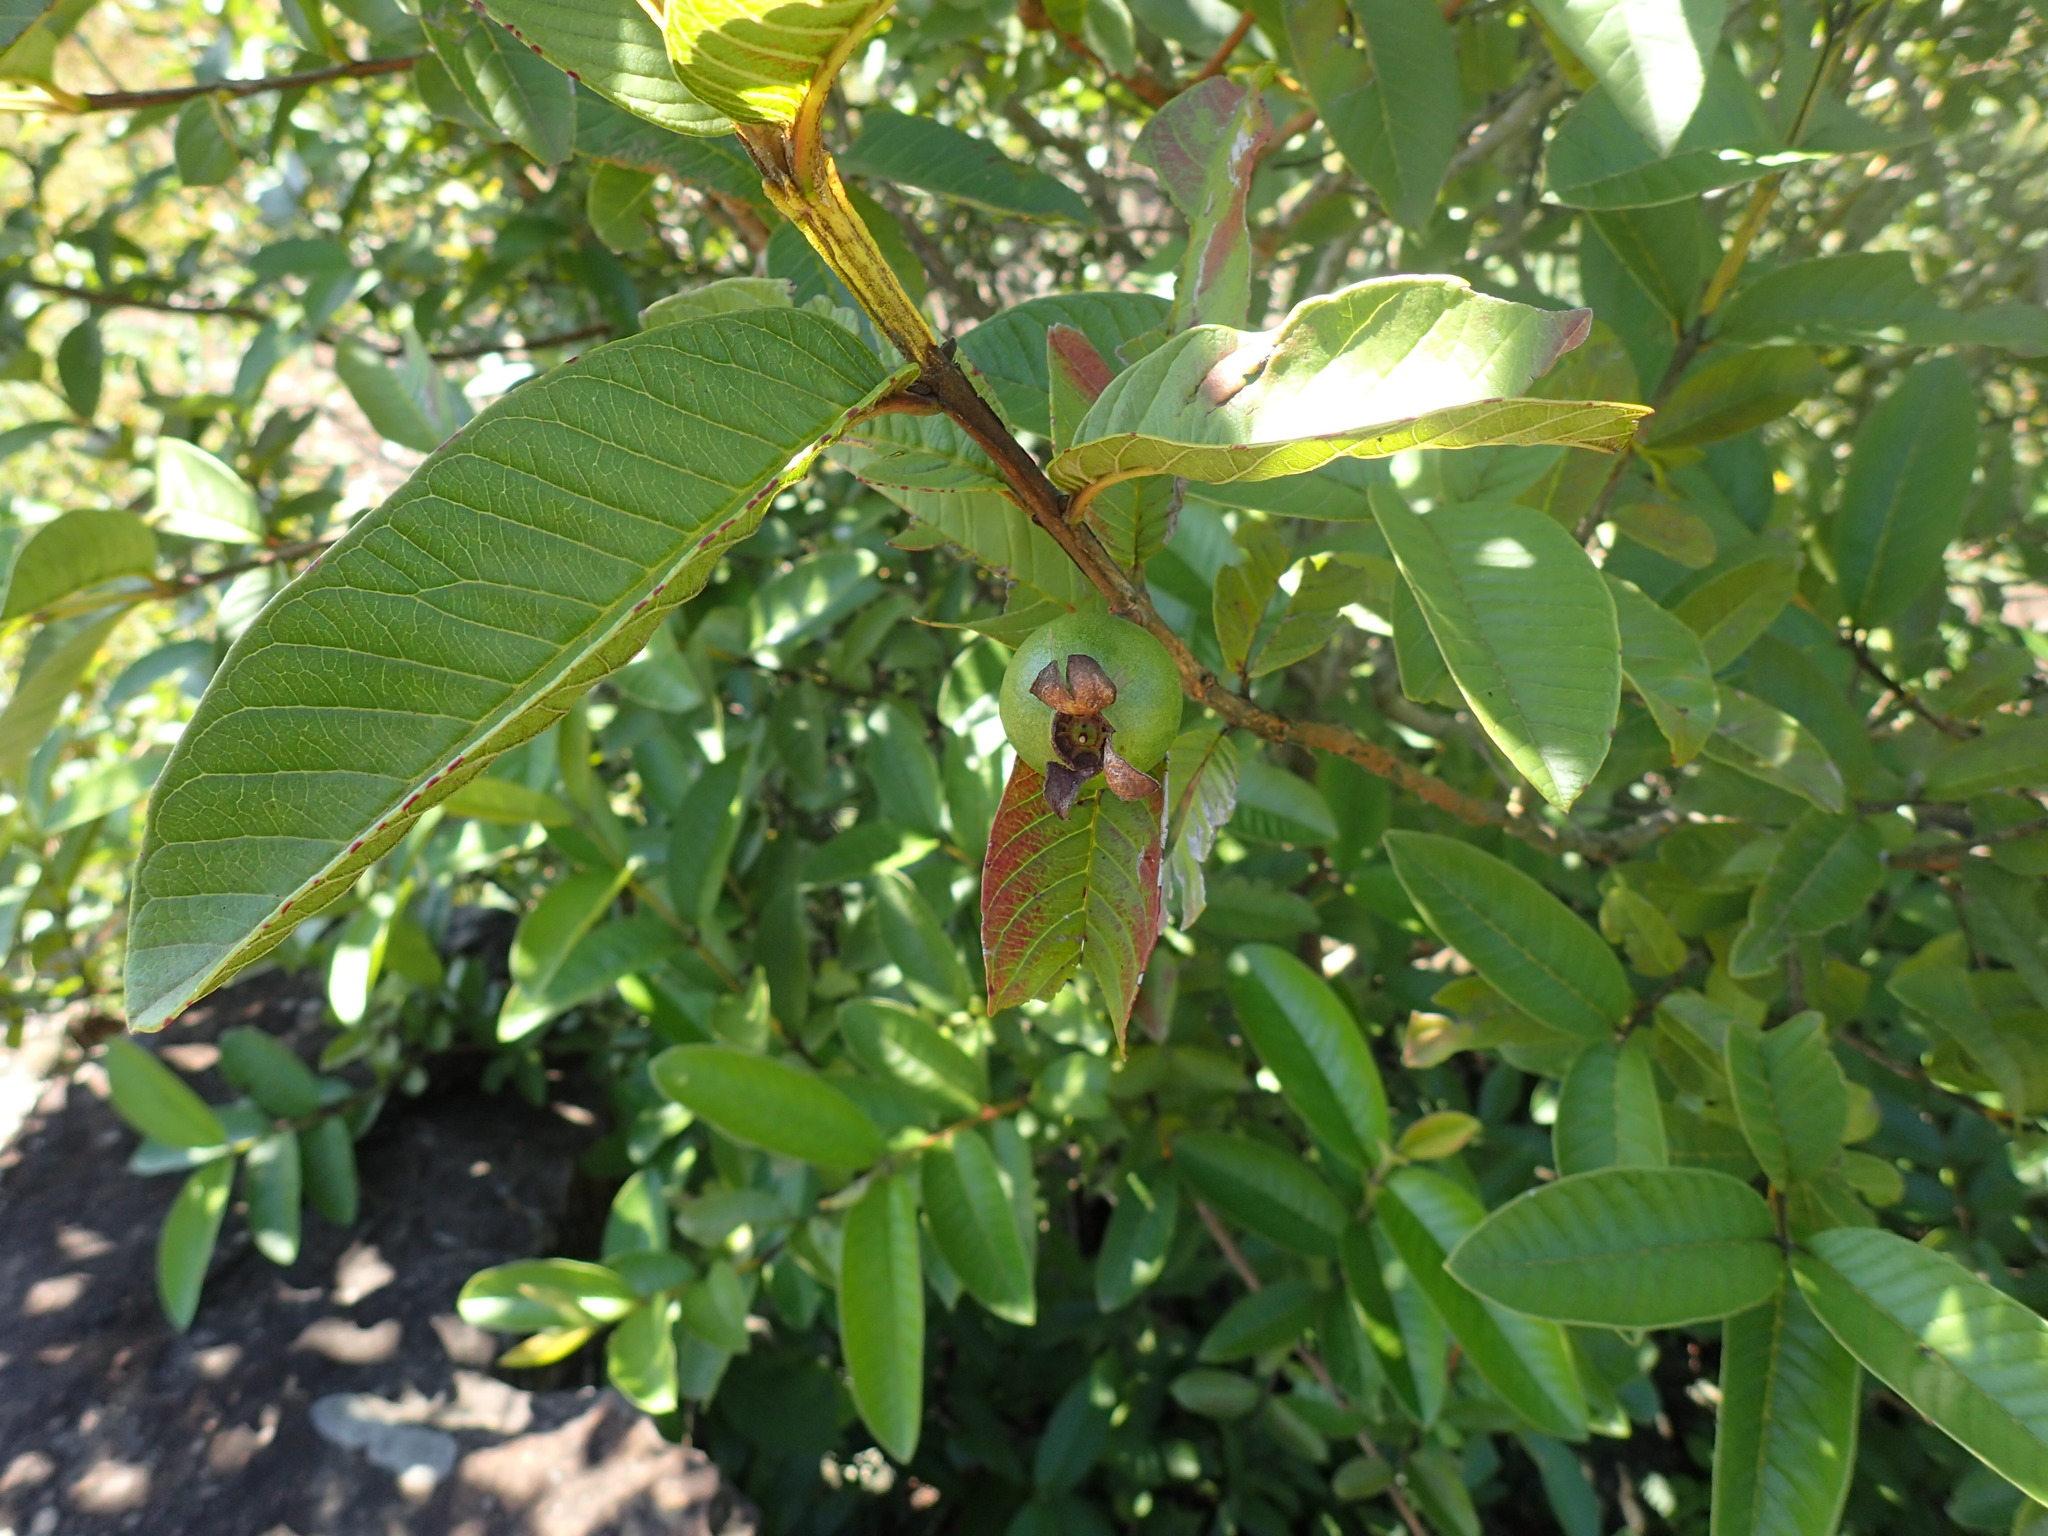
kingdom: Plantae
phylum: Tracheophyta
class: Magnoliopsida
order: Myrtales
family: Myrtaceae
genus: Psidium
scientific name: Psidium guajava
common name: Guava
